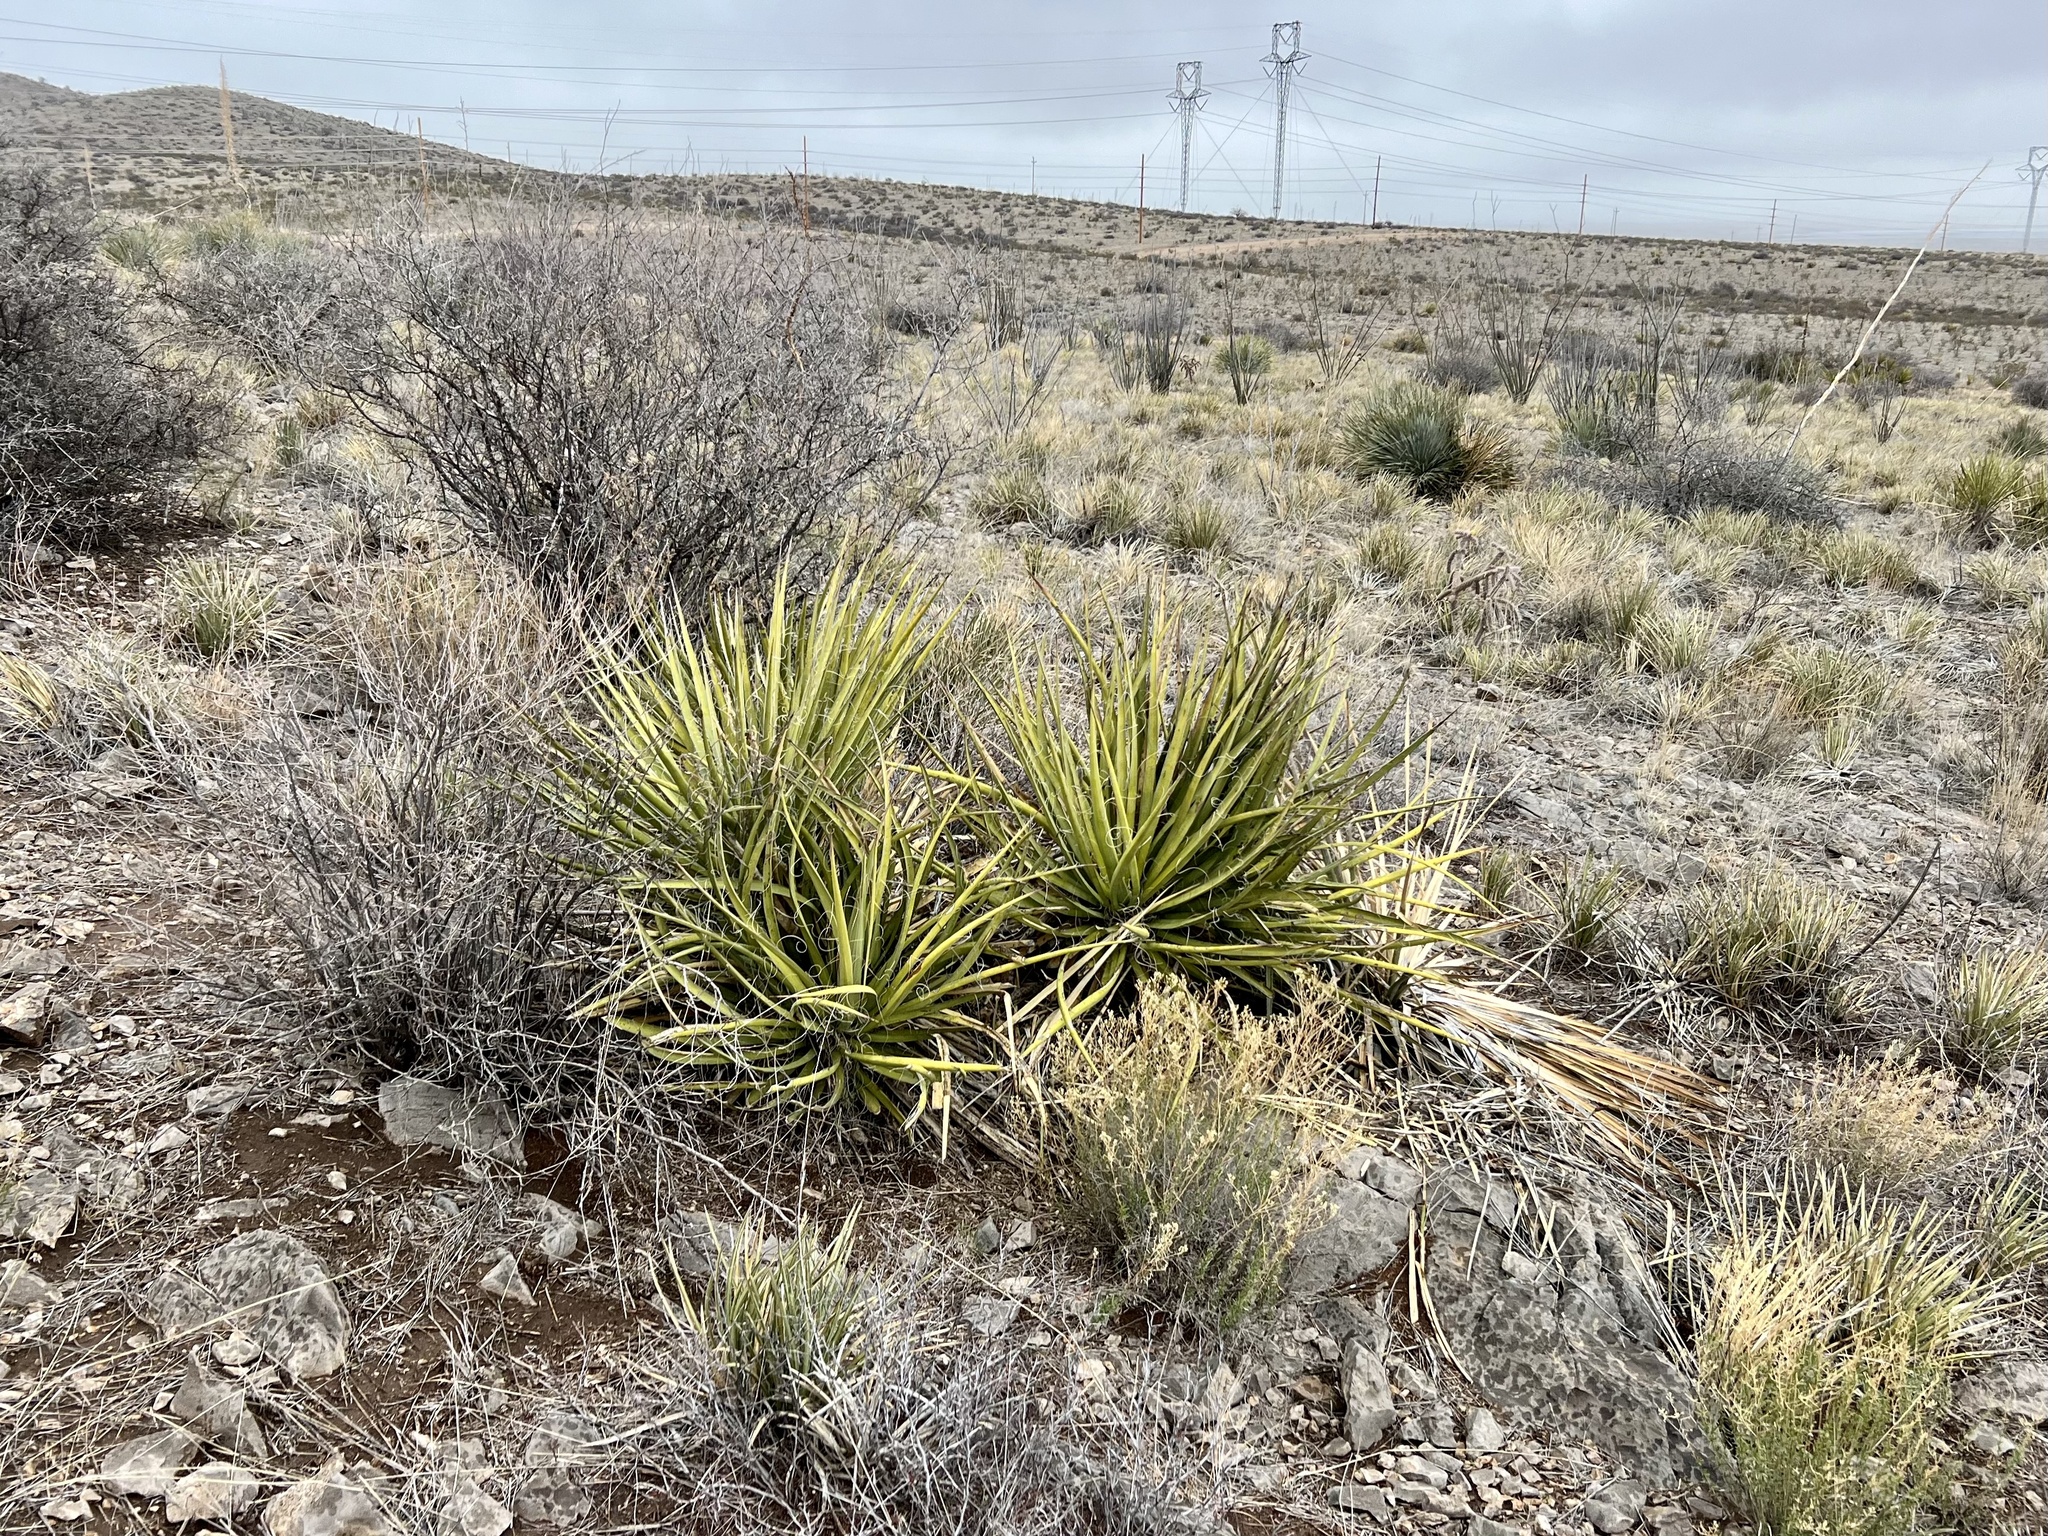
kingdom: Plantae
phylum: Tracheophyta
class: Liliopsida
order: Asparagales
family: Asparagaceae
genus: Yucca
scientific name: Yucca baccata
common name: Banana yucca
